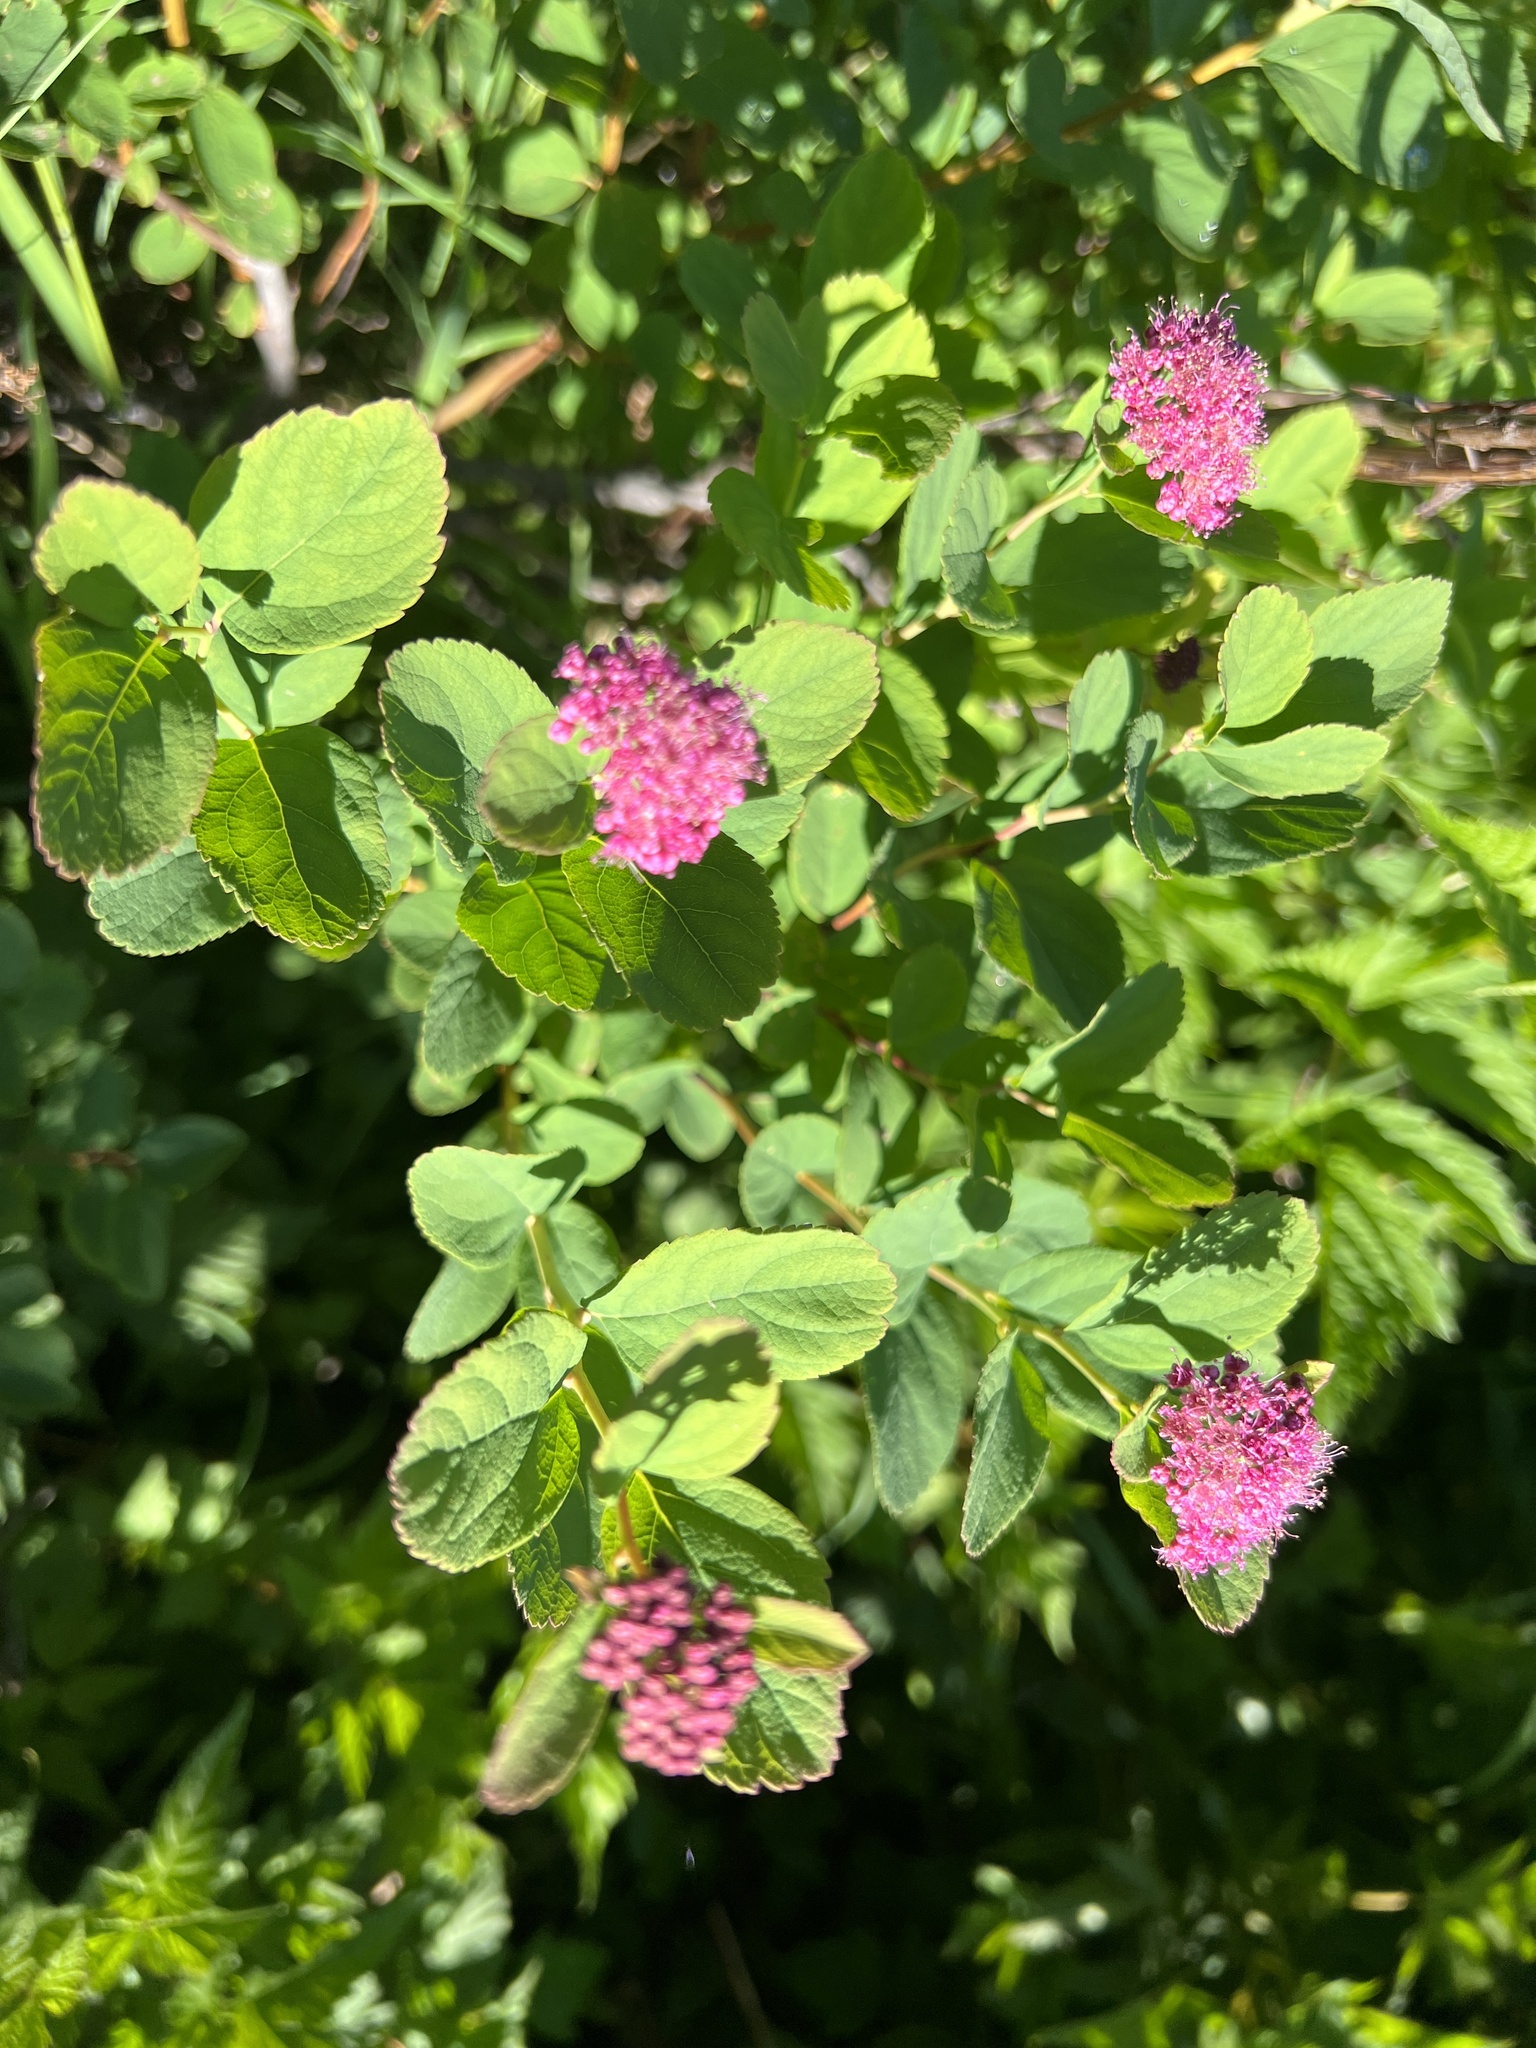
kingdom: Plantae
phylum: Tracheophyta
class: Magnoliopsida
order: Rosales
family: Rosaceae
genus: Spiraea
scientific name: Spiraea splendens
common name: Subalpine meadowsweet
